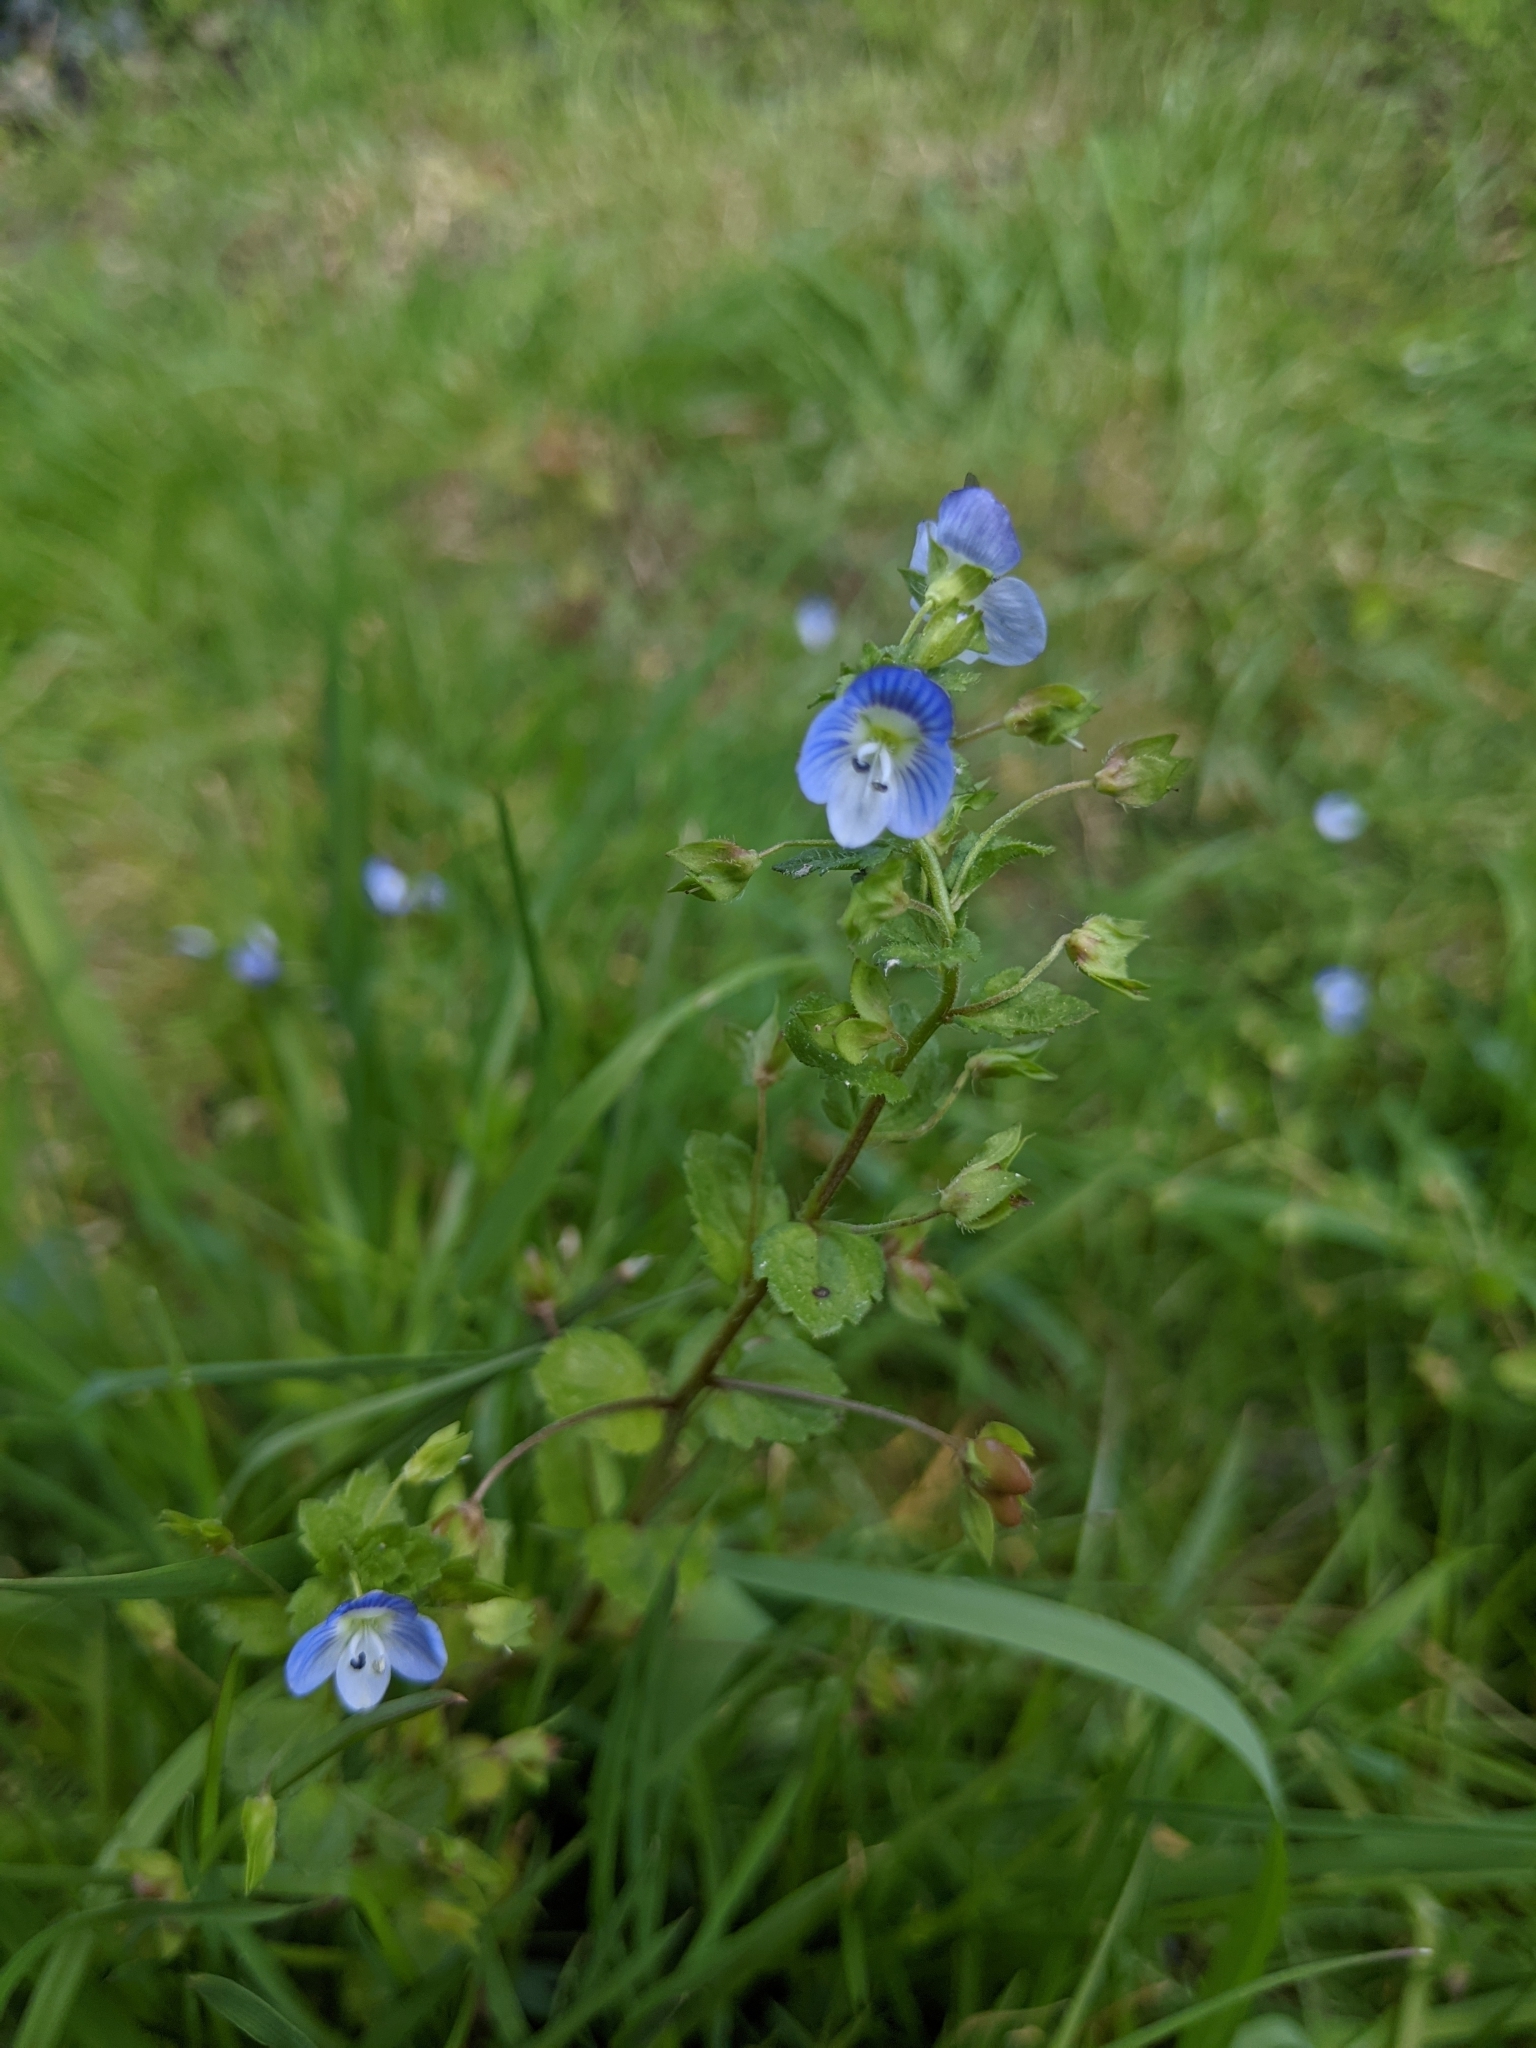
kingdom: Plantae
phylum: Tracheophyta
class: Magnoliopsida
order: Lamiales
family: Plantaginaceae
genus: Veronica
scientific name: Veronica persica
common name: Common field-speedwell
